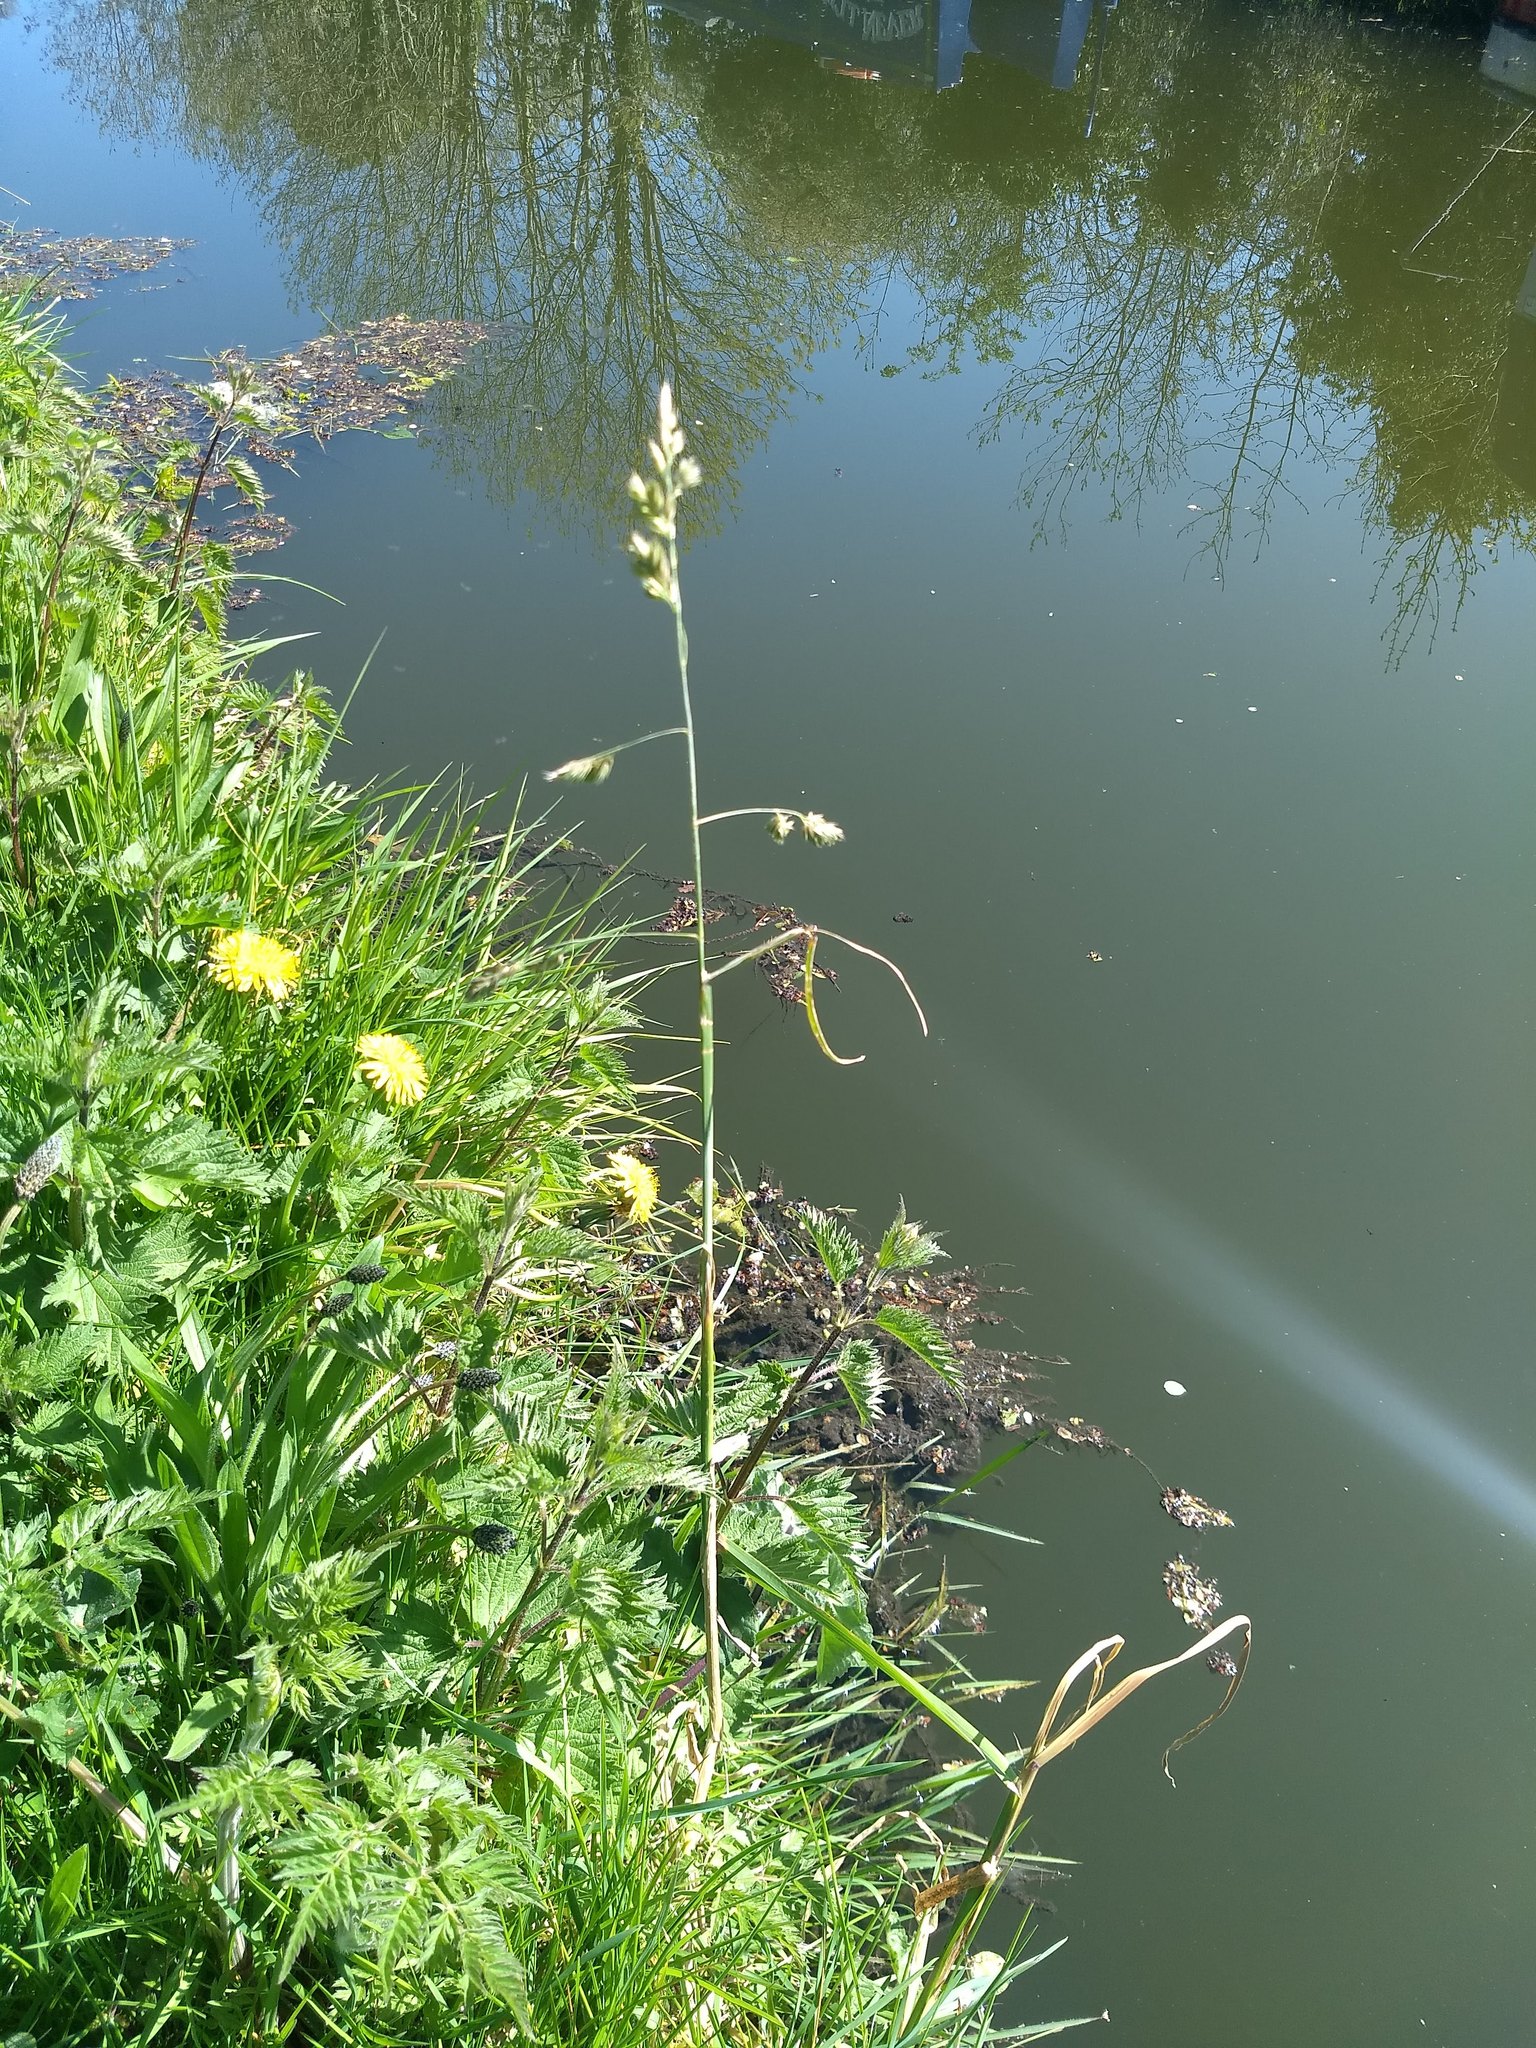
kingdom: Plantae
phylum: Tracheophyta
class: Liliopsida
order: Poales
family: Poaceae
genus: Dactylis
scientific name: Dactylis glomerata
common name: Orchardgrass
